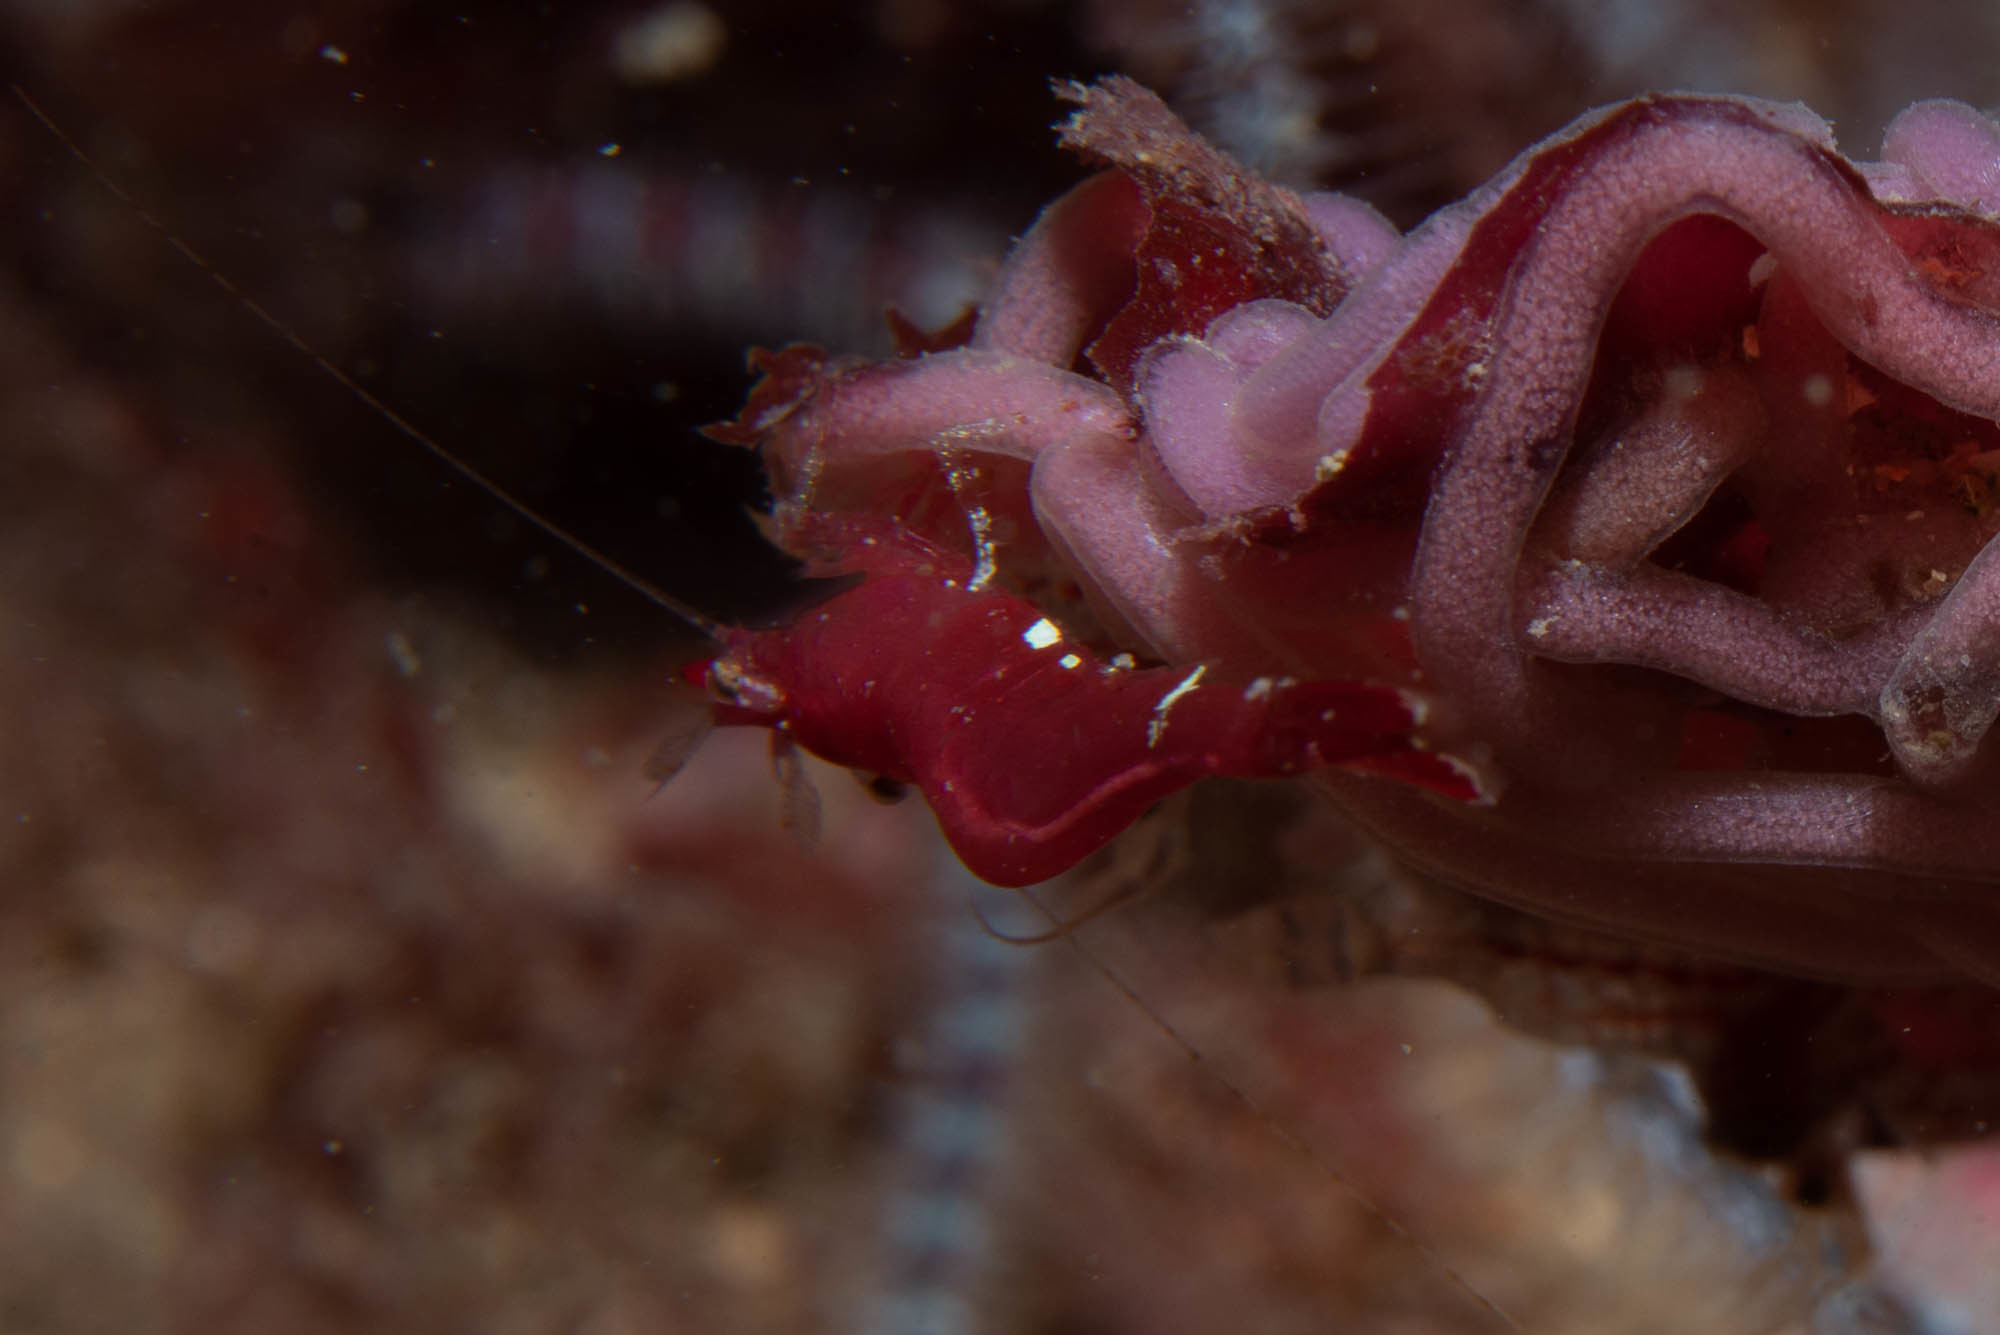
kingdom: Animalia
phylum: Arthropoda
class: Malacostraca
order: Decapoda
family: Hippolytidae
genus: Hippolyte
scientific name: Hippolyte varians
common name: Chamaeleon prawn
